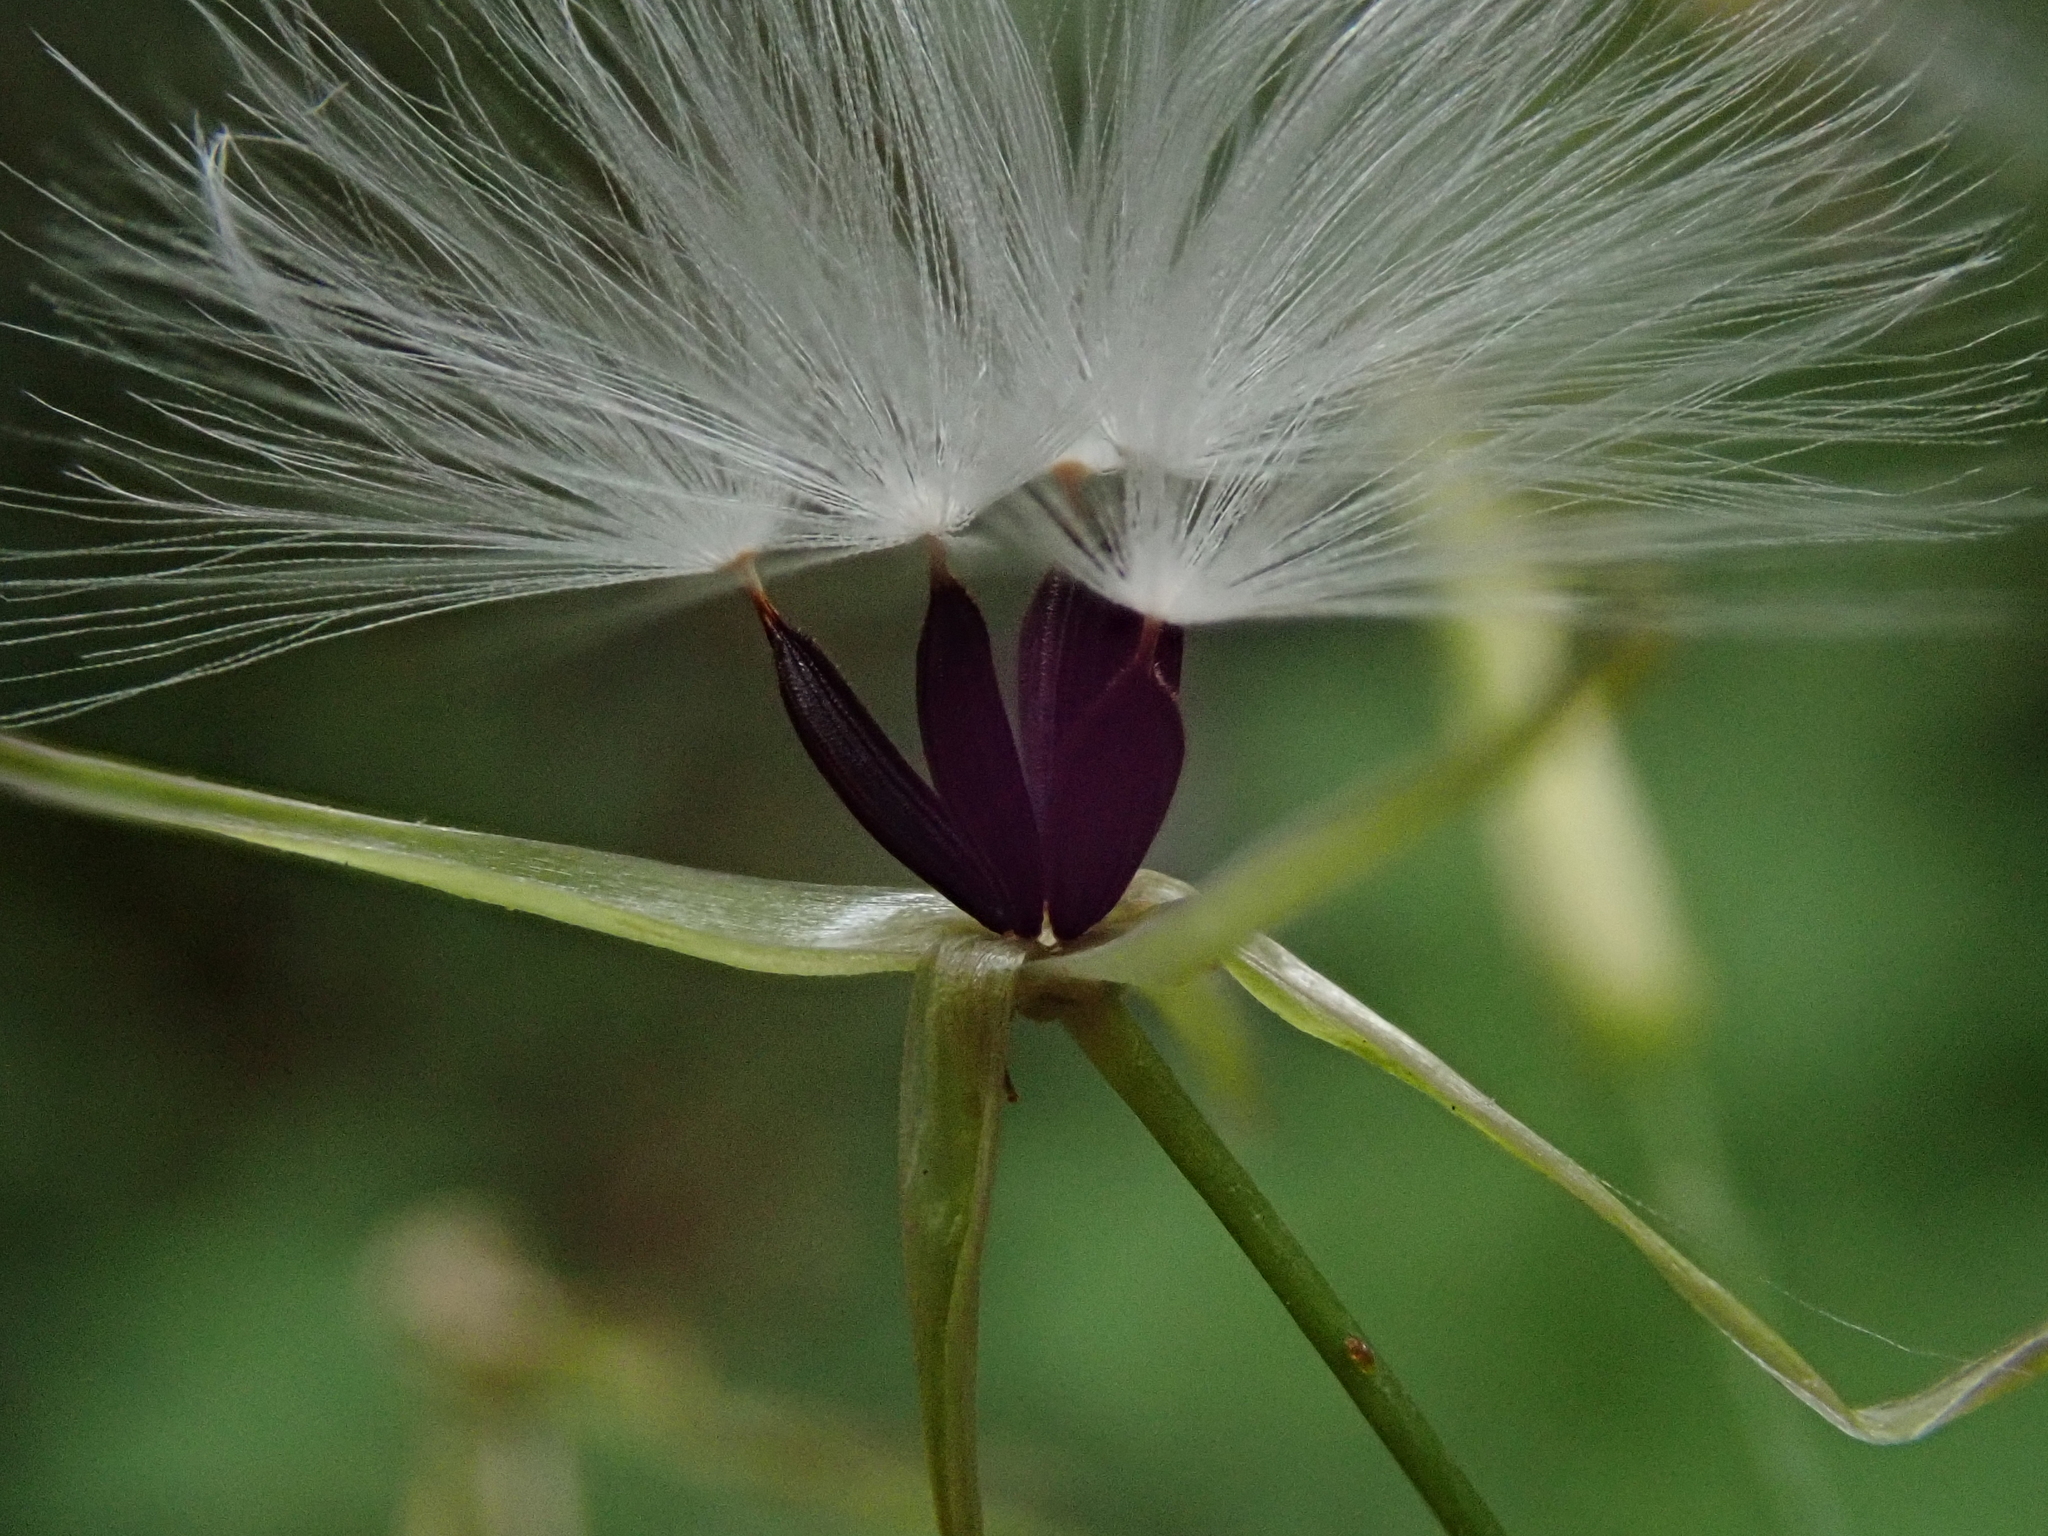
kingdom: Plantae
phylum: Tracheophyta
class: Magnoliopsida
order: Asterales
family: Asteraceae
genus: Mycelis
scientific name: Mycelis muralis
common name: Wall lettuce
